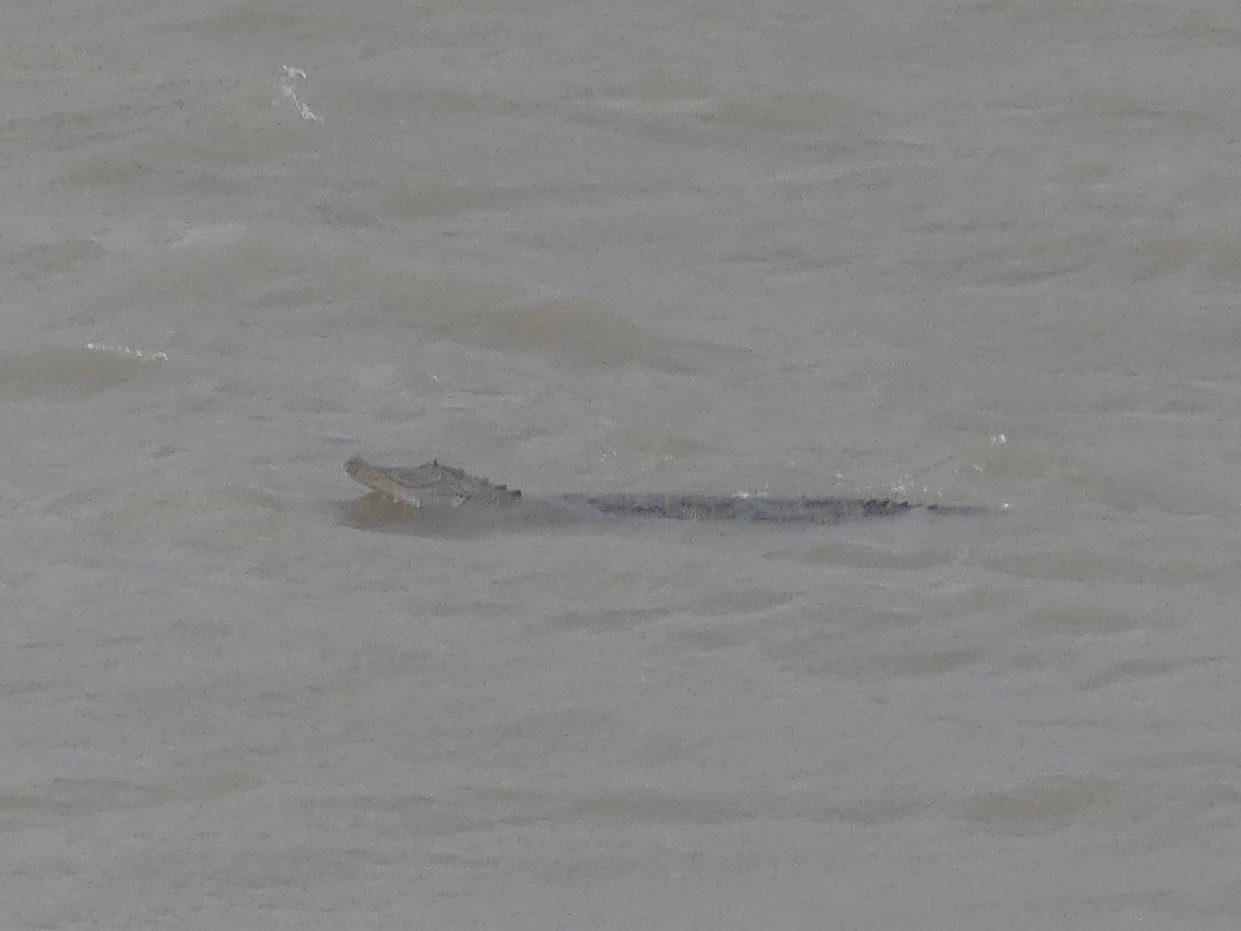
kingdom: Animalia
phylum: Chordata
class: Crocodylia
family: Alligatoridae
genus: Alligator
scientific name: Alligator mississippiensis
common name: American alligator
